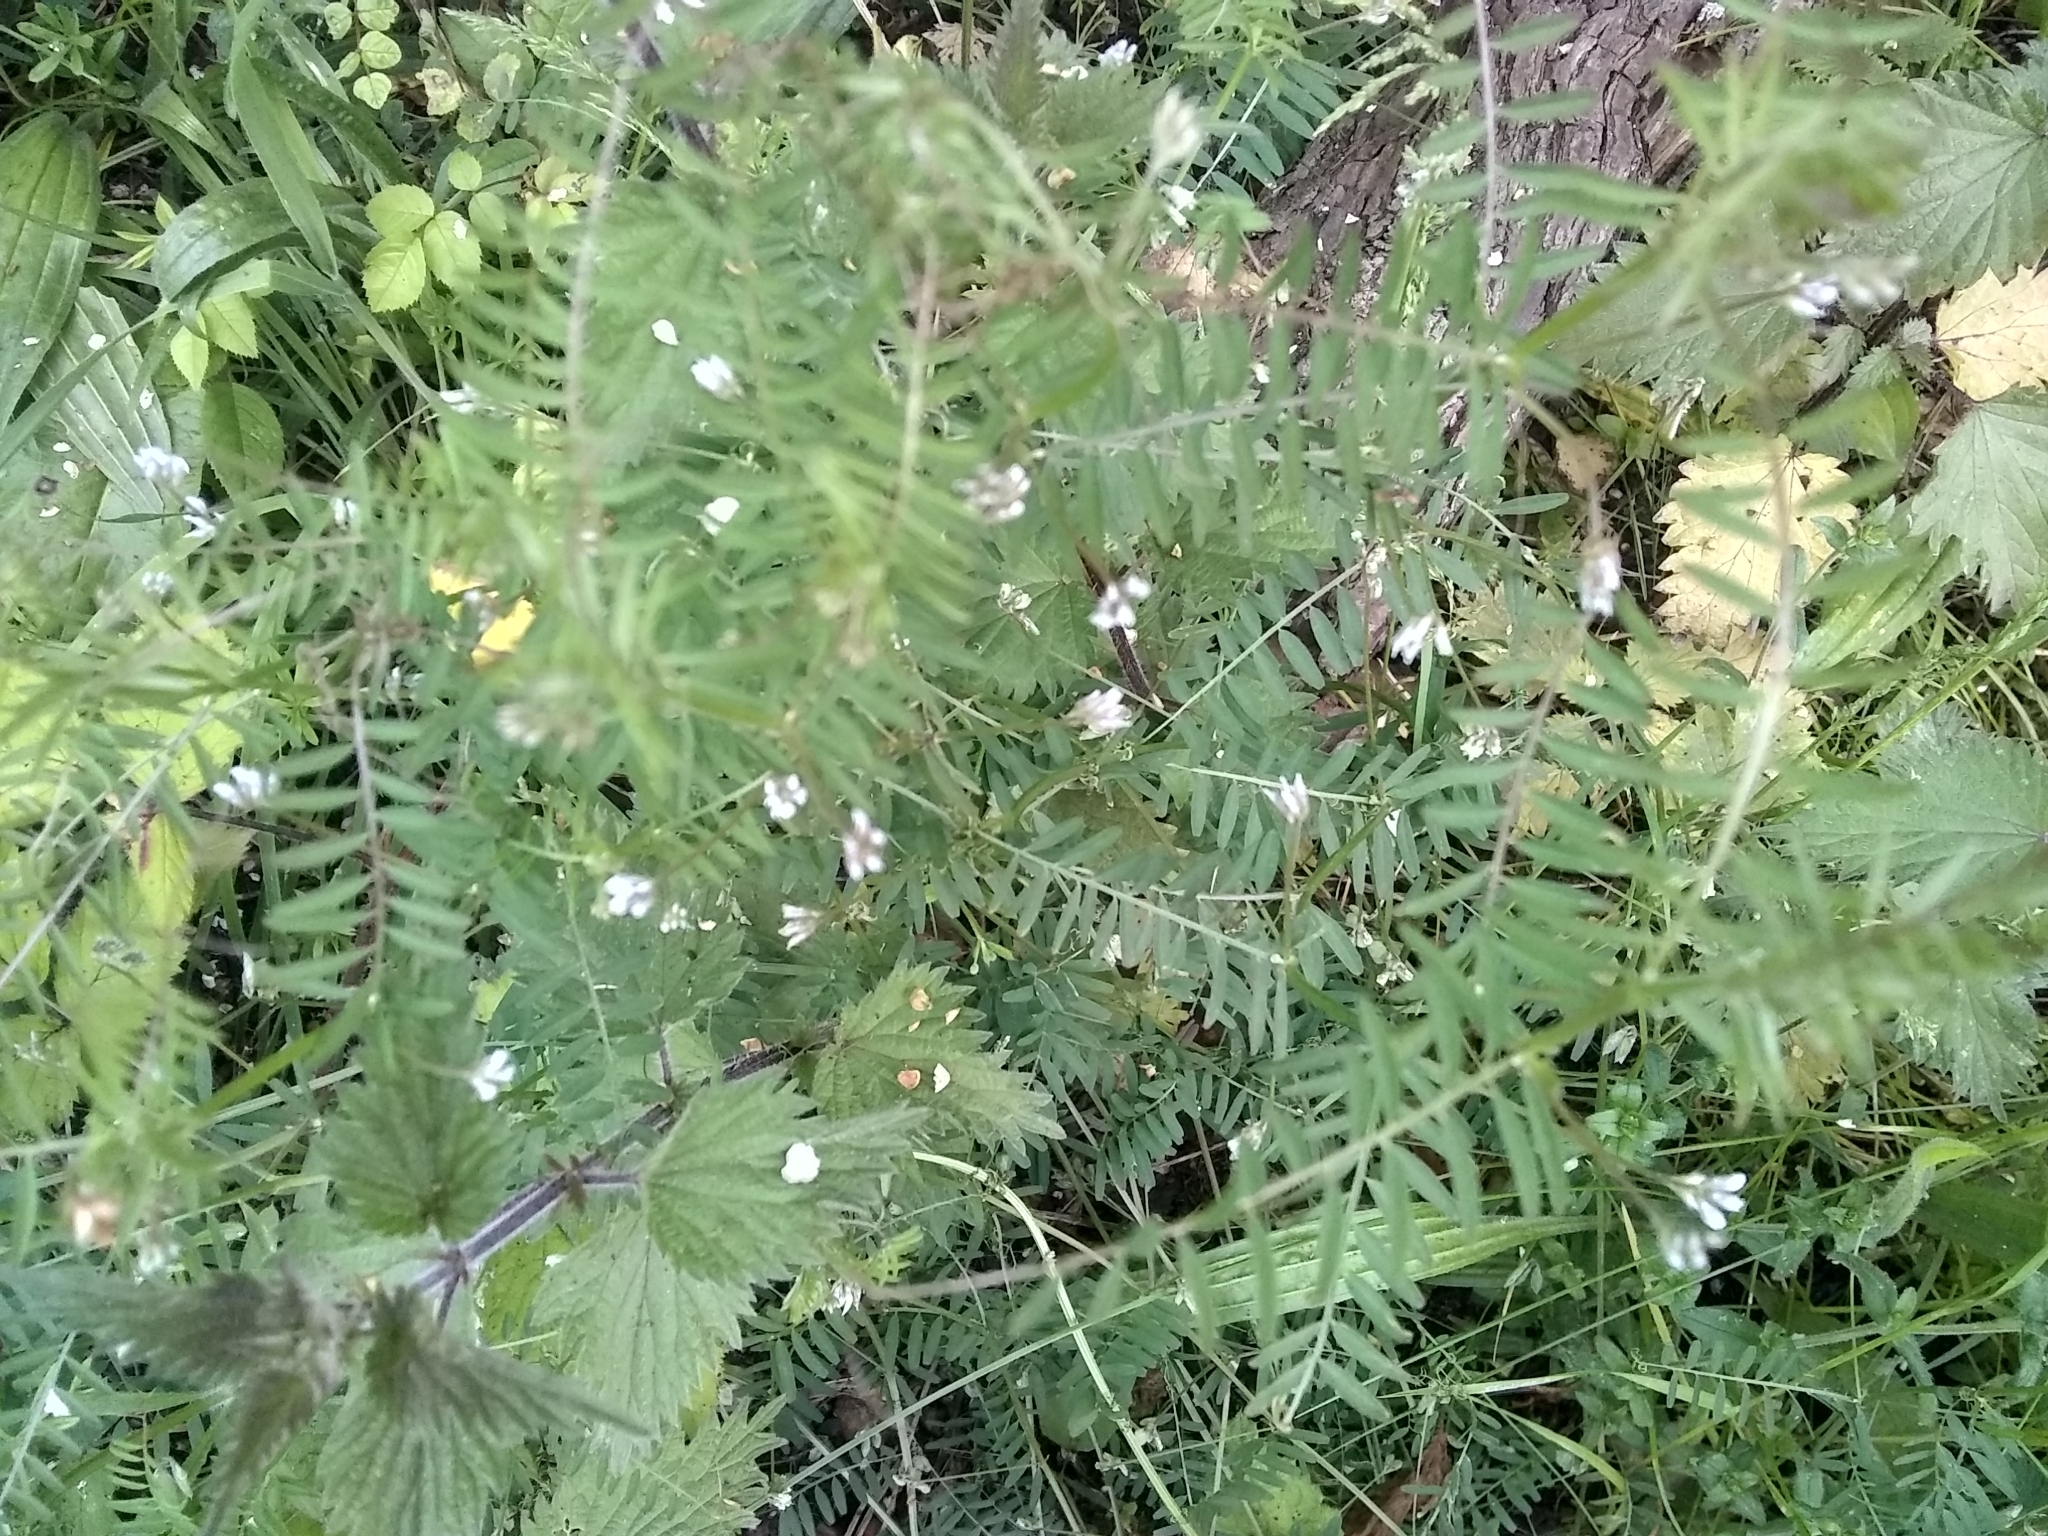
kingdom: Plantae
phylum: Tracheophyta
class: Magnoliopsida
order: Fabales
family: Fabaceae
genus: Vicia
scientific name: Vicia hirsuta
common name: Tiny vetch
